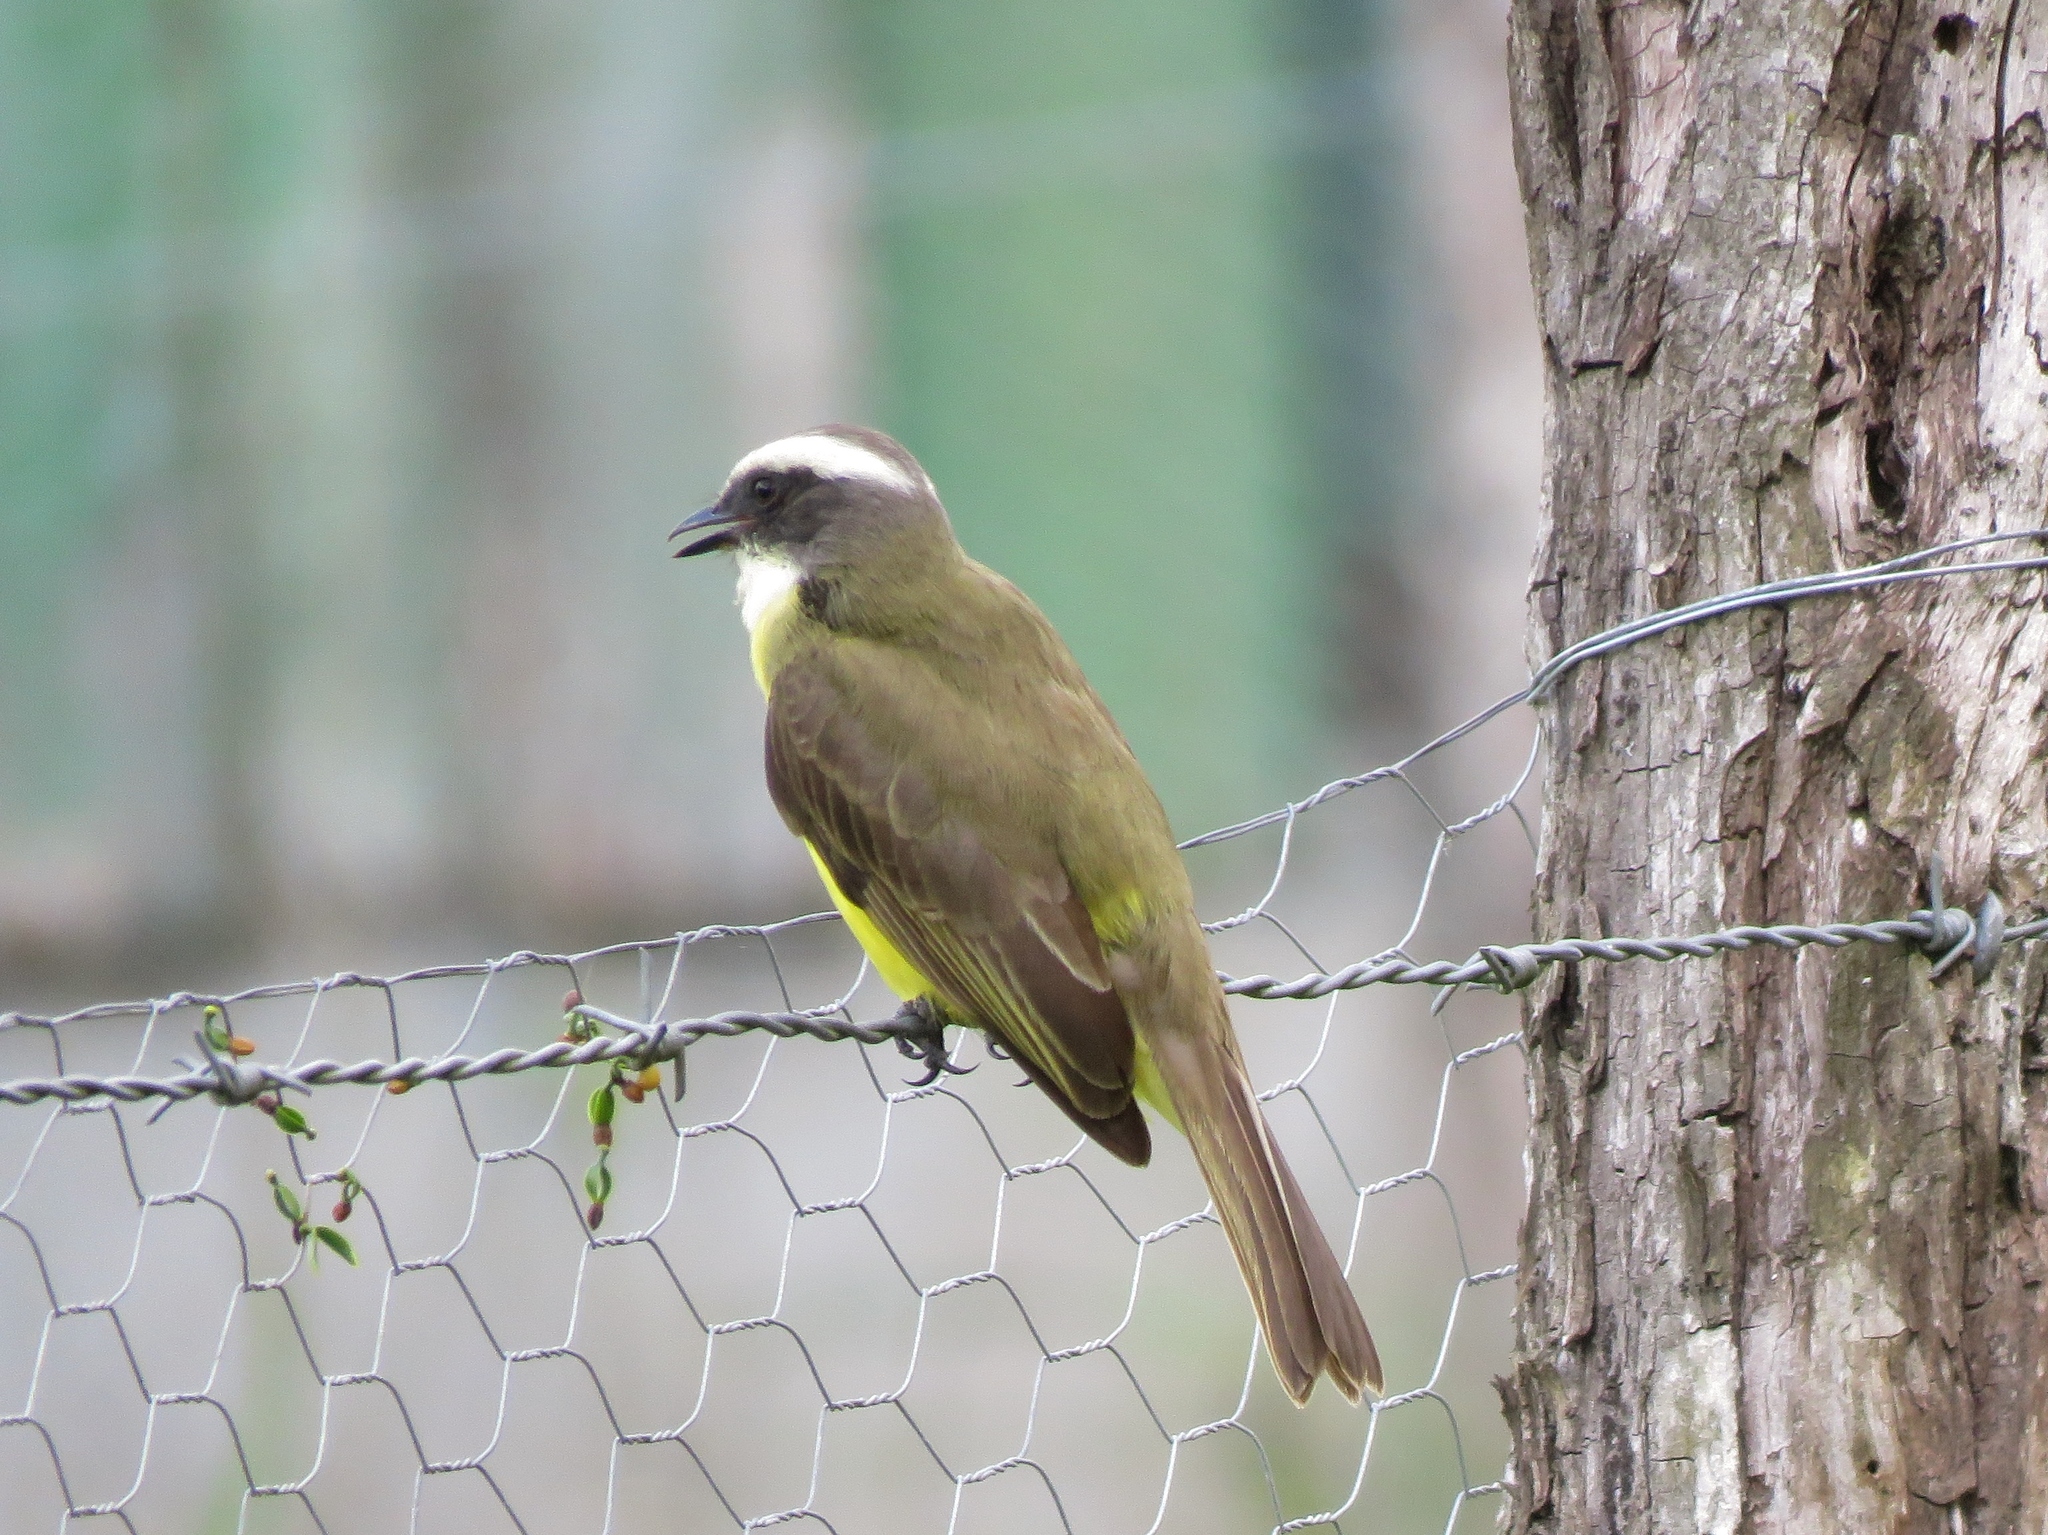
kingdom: Animalia
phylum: Chordata
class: Aves
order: Passeriformes
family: Tyrannidae
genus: Myiozetetes
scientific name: Myiozetetes similis
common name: Social flycatcher
